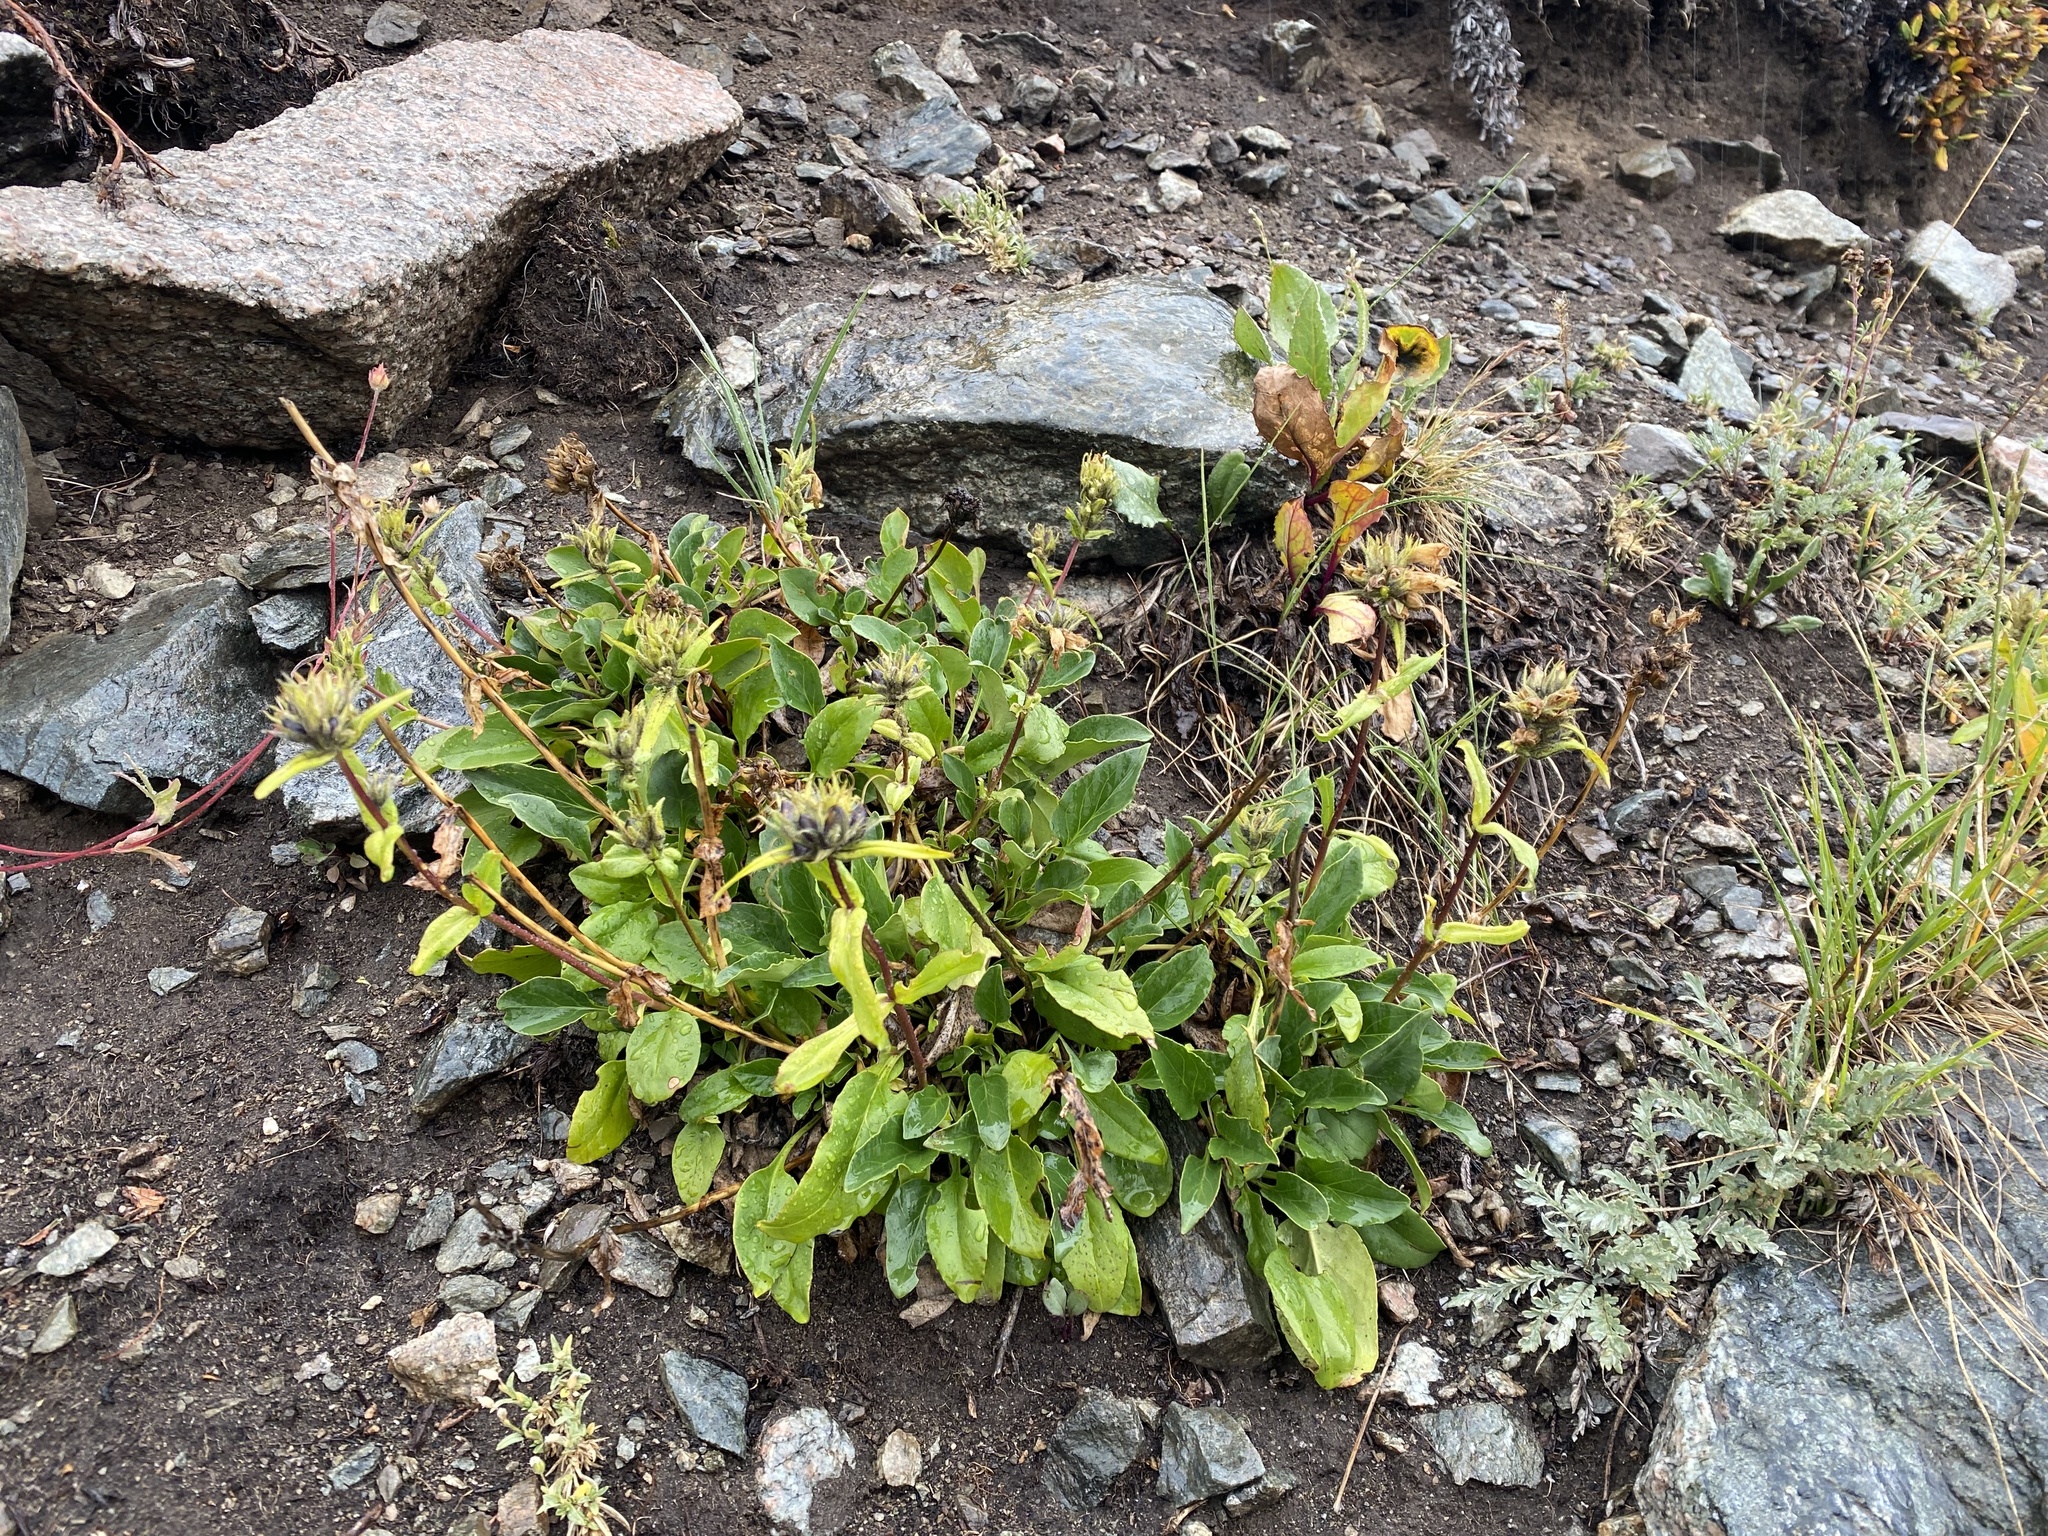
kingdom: Plantae
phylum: Tracheophyta
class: Magnoliopsida
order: Lamiales
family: Plantaginaceae
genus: Penstemon
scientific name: Penstemon whippleanus
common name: Whipple's penstemon
